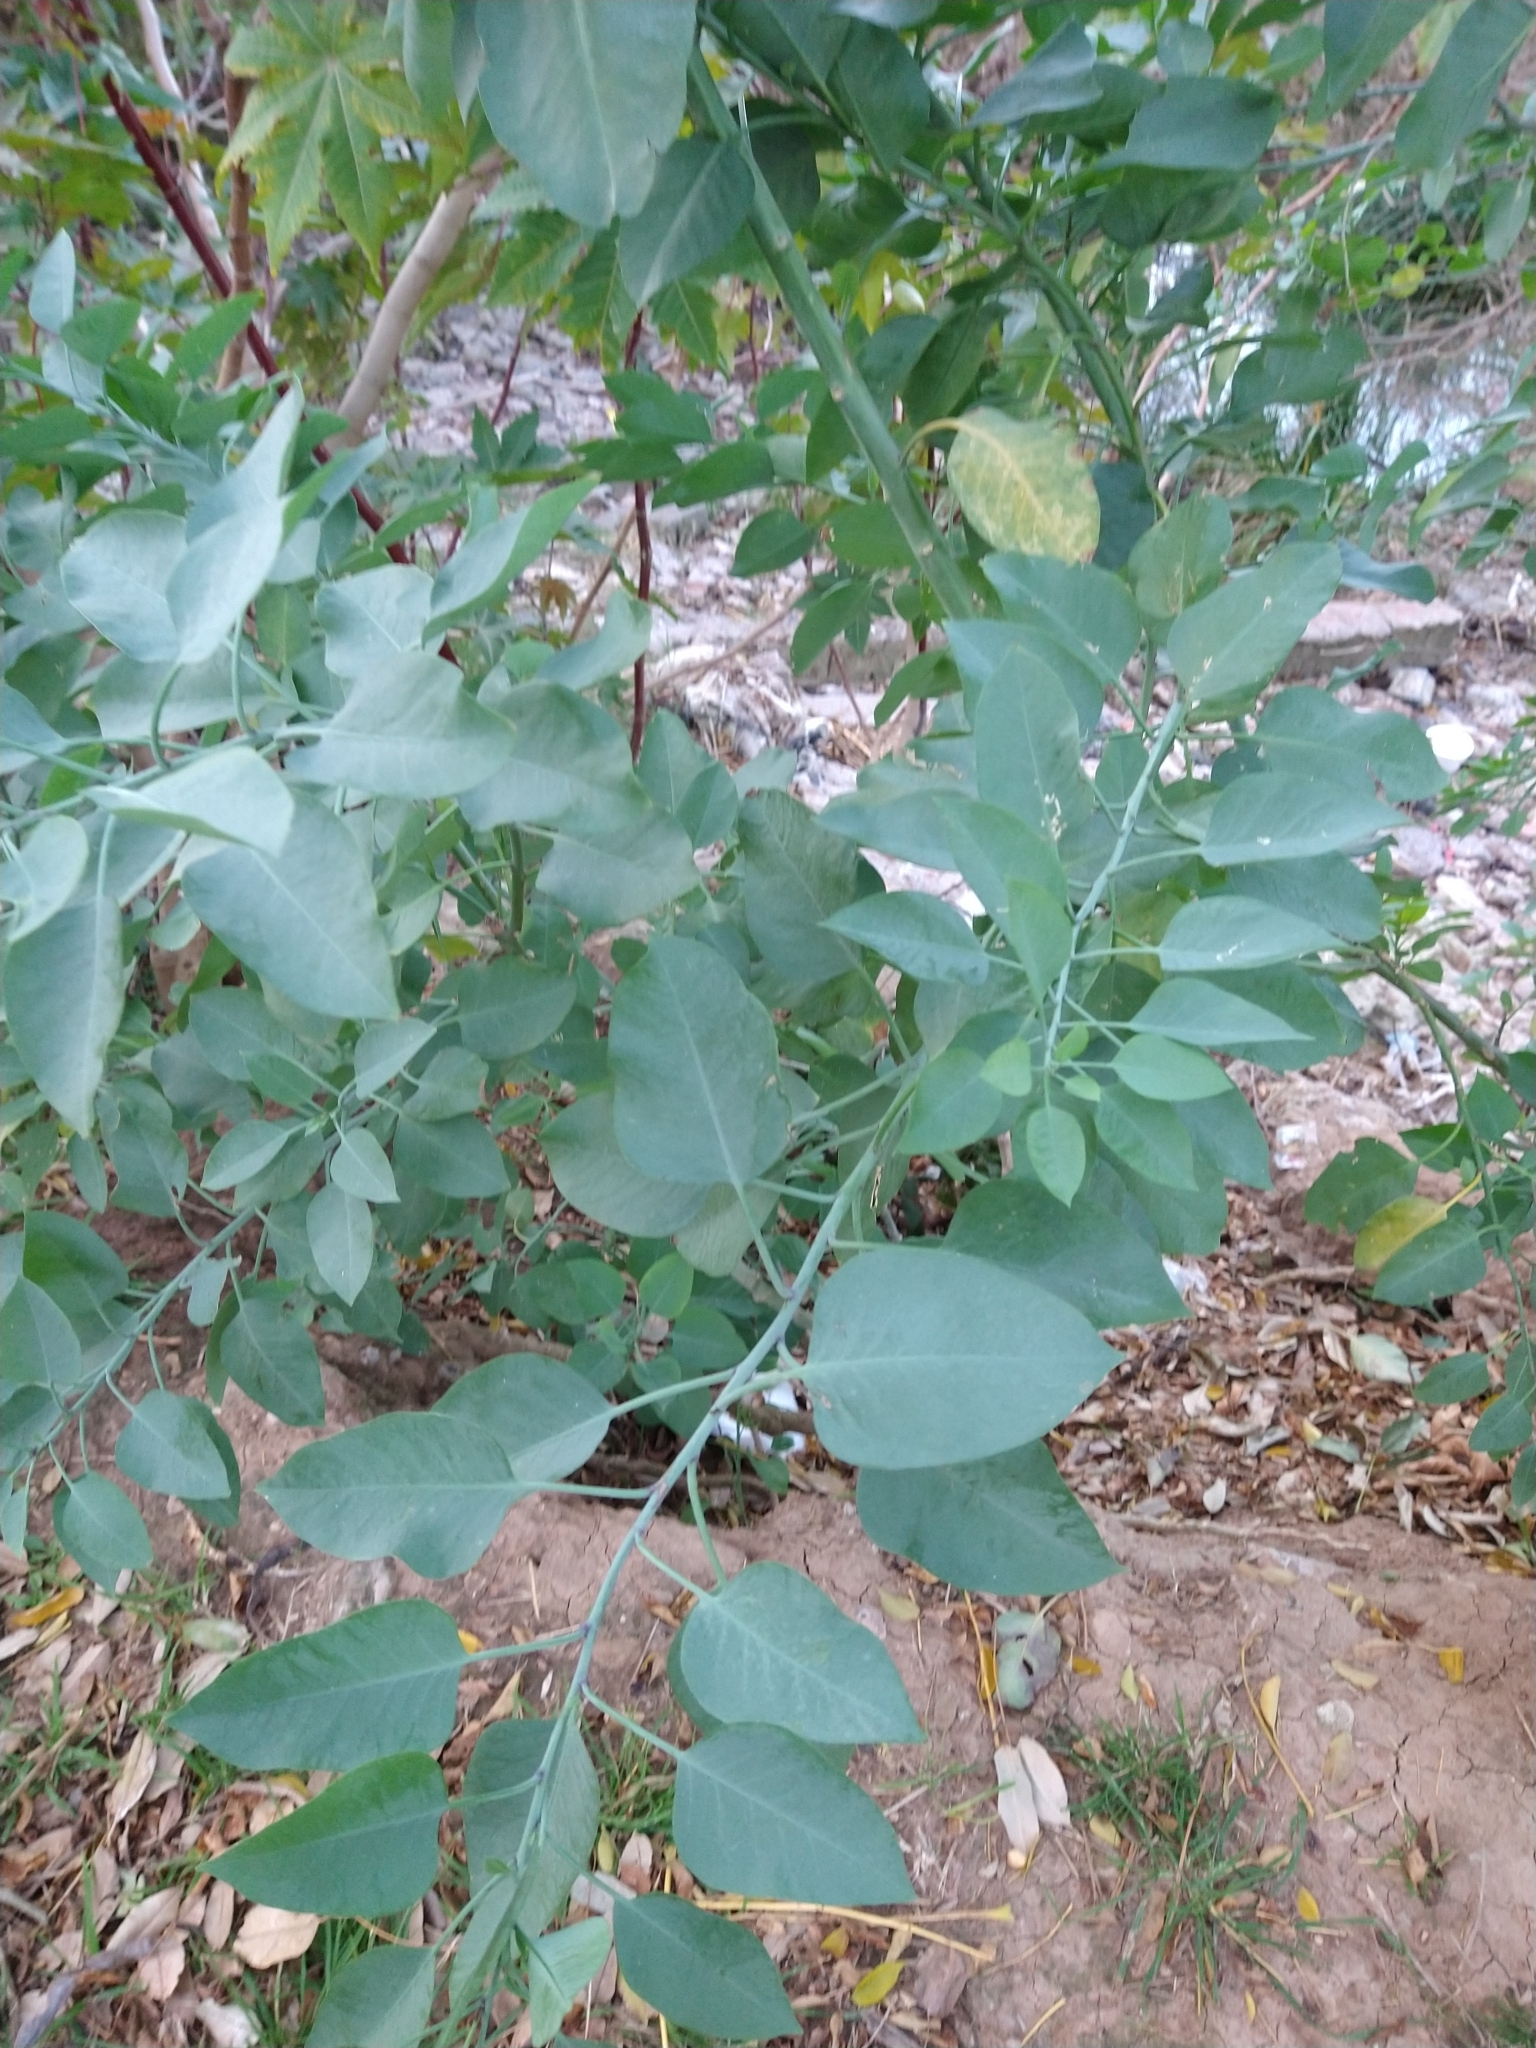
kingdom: Plantae
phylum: Tracheophyta
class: Magnoliopsida
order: Solanales
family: Solanaceae
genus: Nicotiana
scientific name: Nicotiana glauca
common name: Tree tobacco
